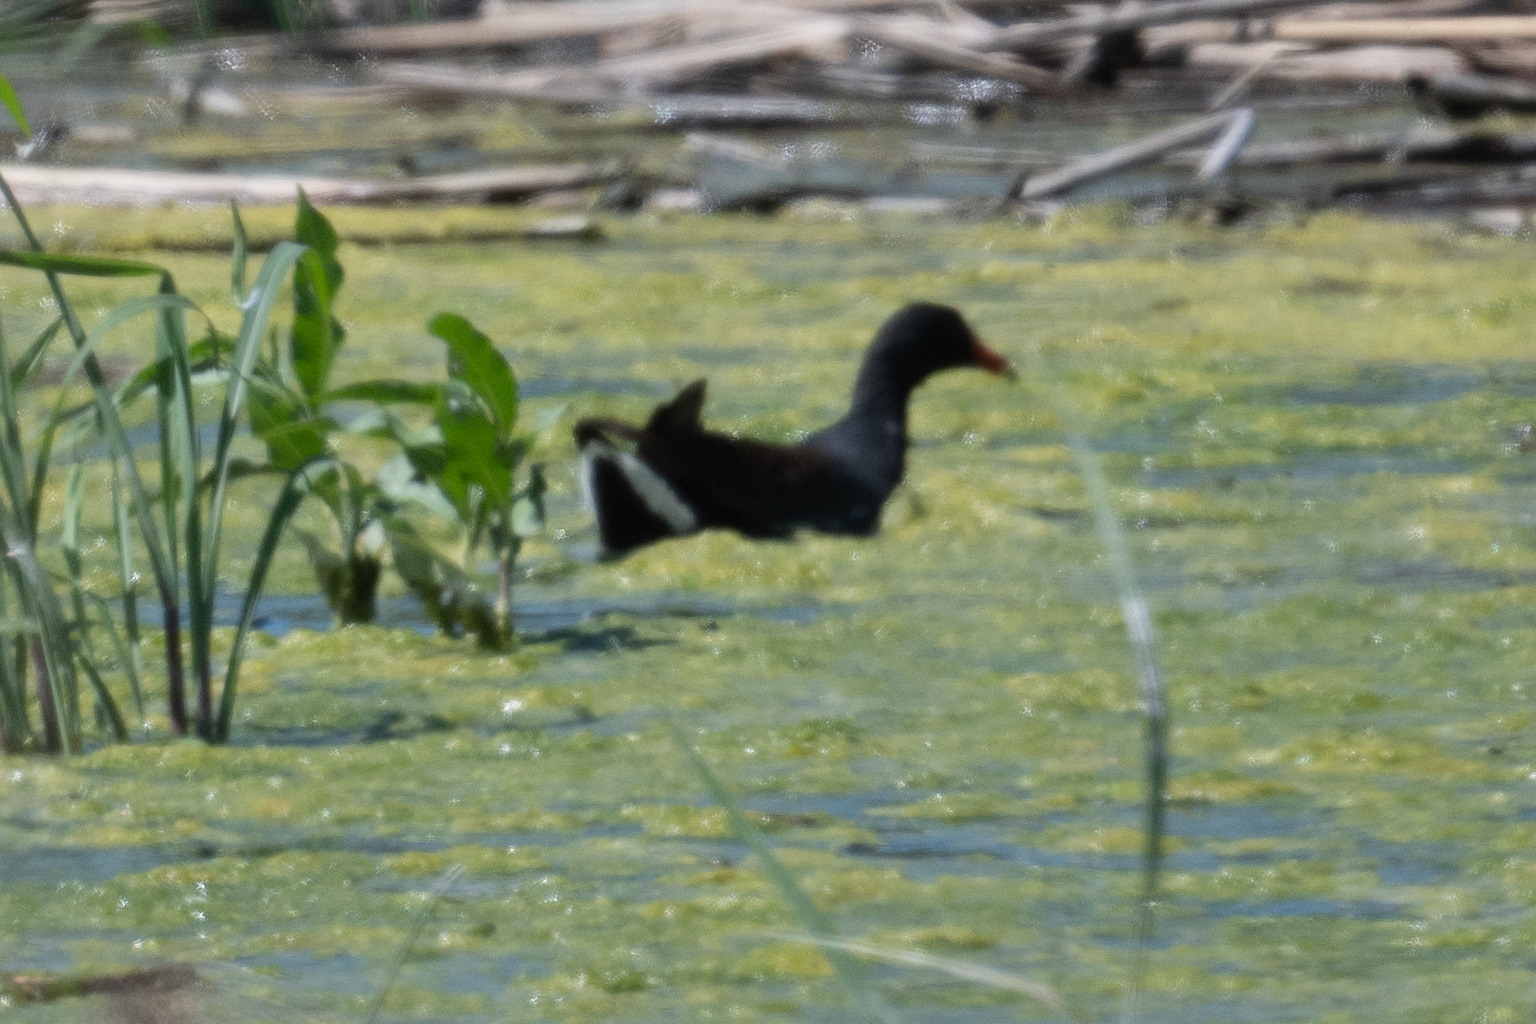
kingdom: Animalia
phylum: Chordata
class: Aves
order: Gruiformes
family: Rallidae
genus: Gallinula
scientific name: Gallinula chloropus
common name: Common moorhen
